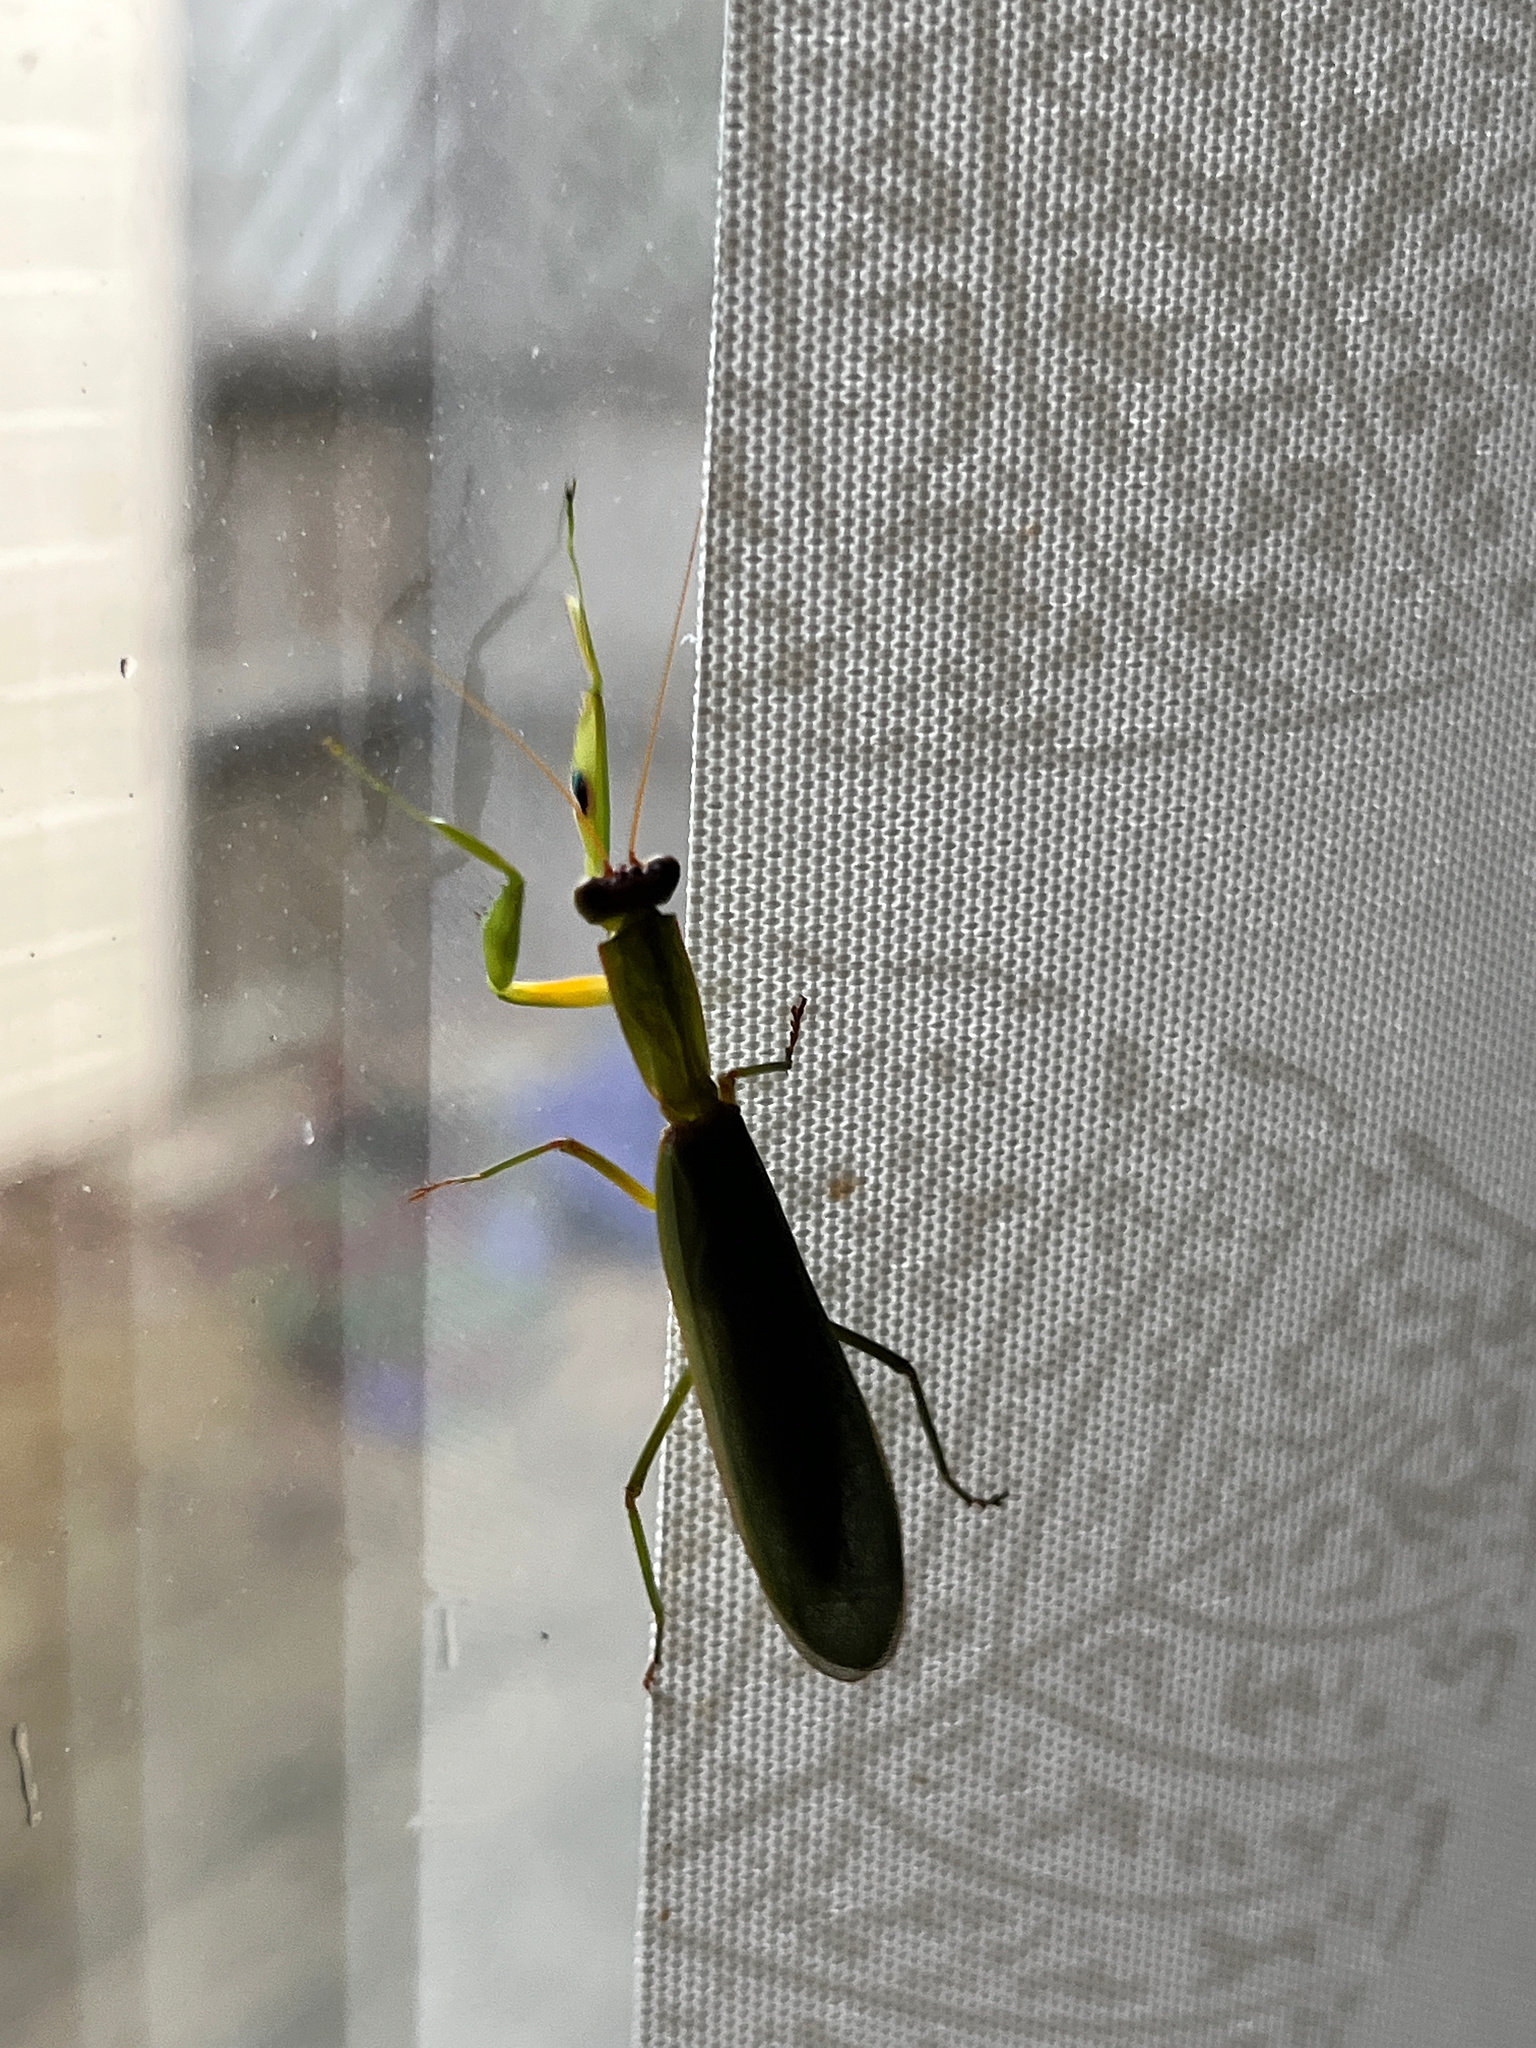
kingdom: Animalia
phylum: Arthropoda
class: Insecta
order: Mantodea
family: Mantidae
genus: Orthodera
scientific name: Orthodera novaezealandiae
